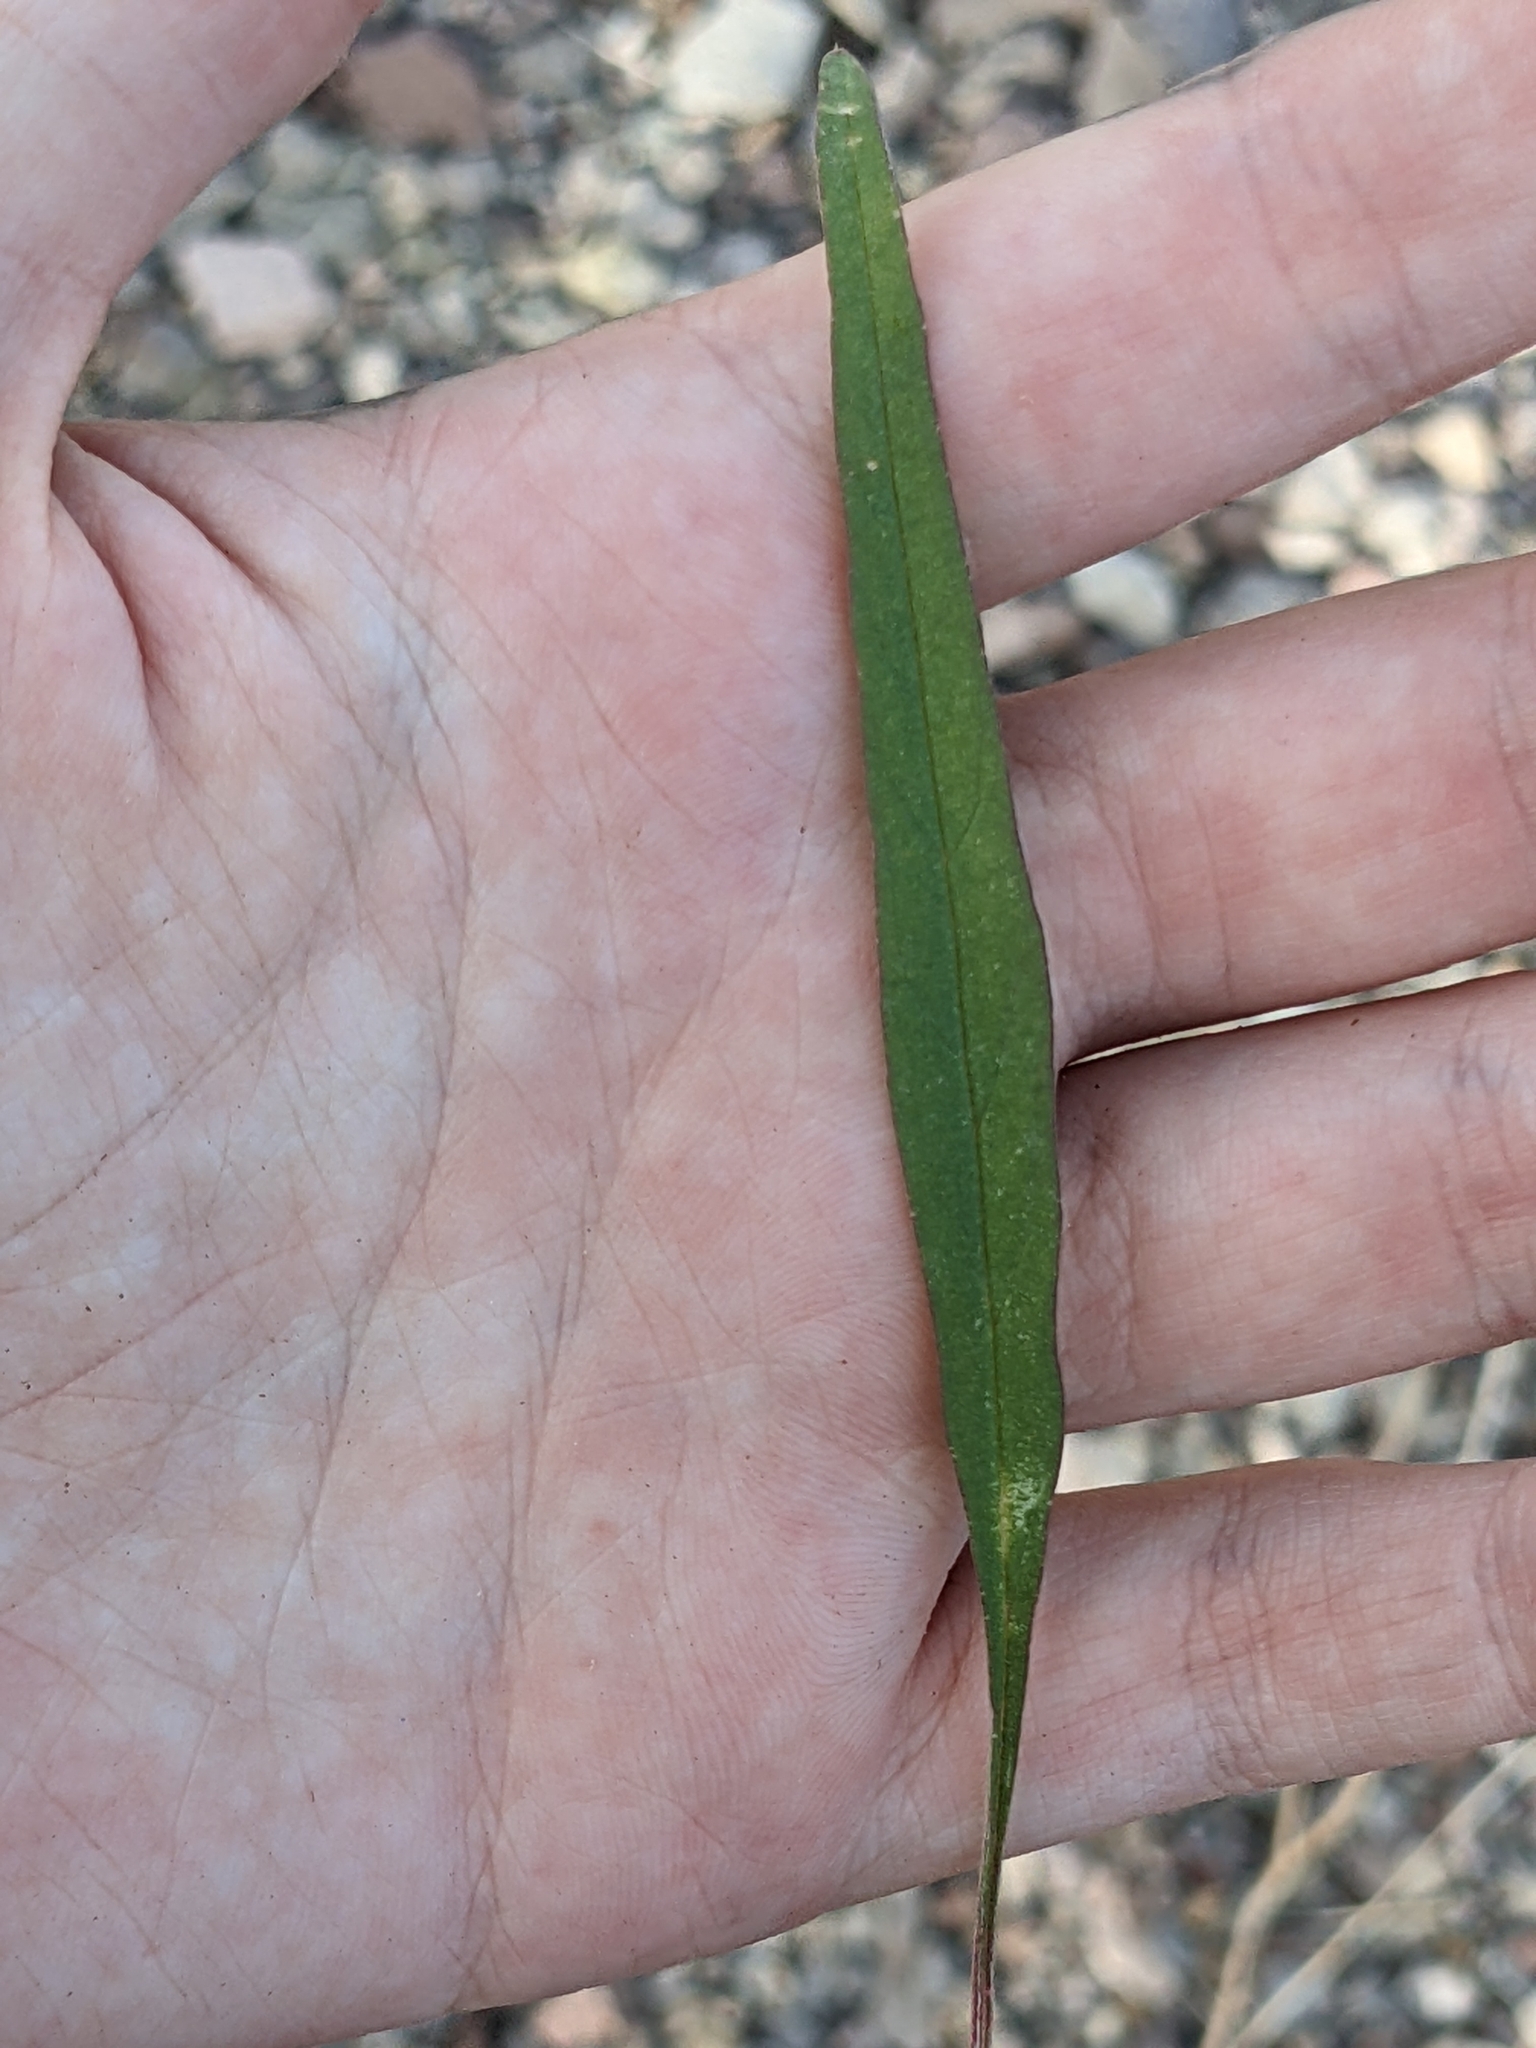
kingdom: Plantae
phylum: Tracheophyta
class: Magnoliopsida
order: Caryophyllales
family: Amaranthaceae
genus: Amaranthus
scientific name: Amaranthus fimbriatus
